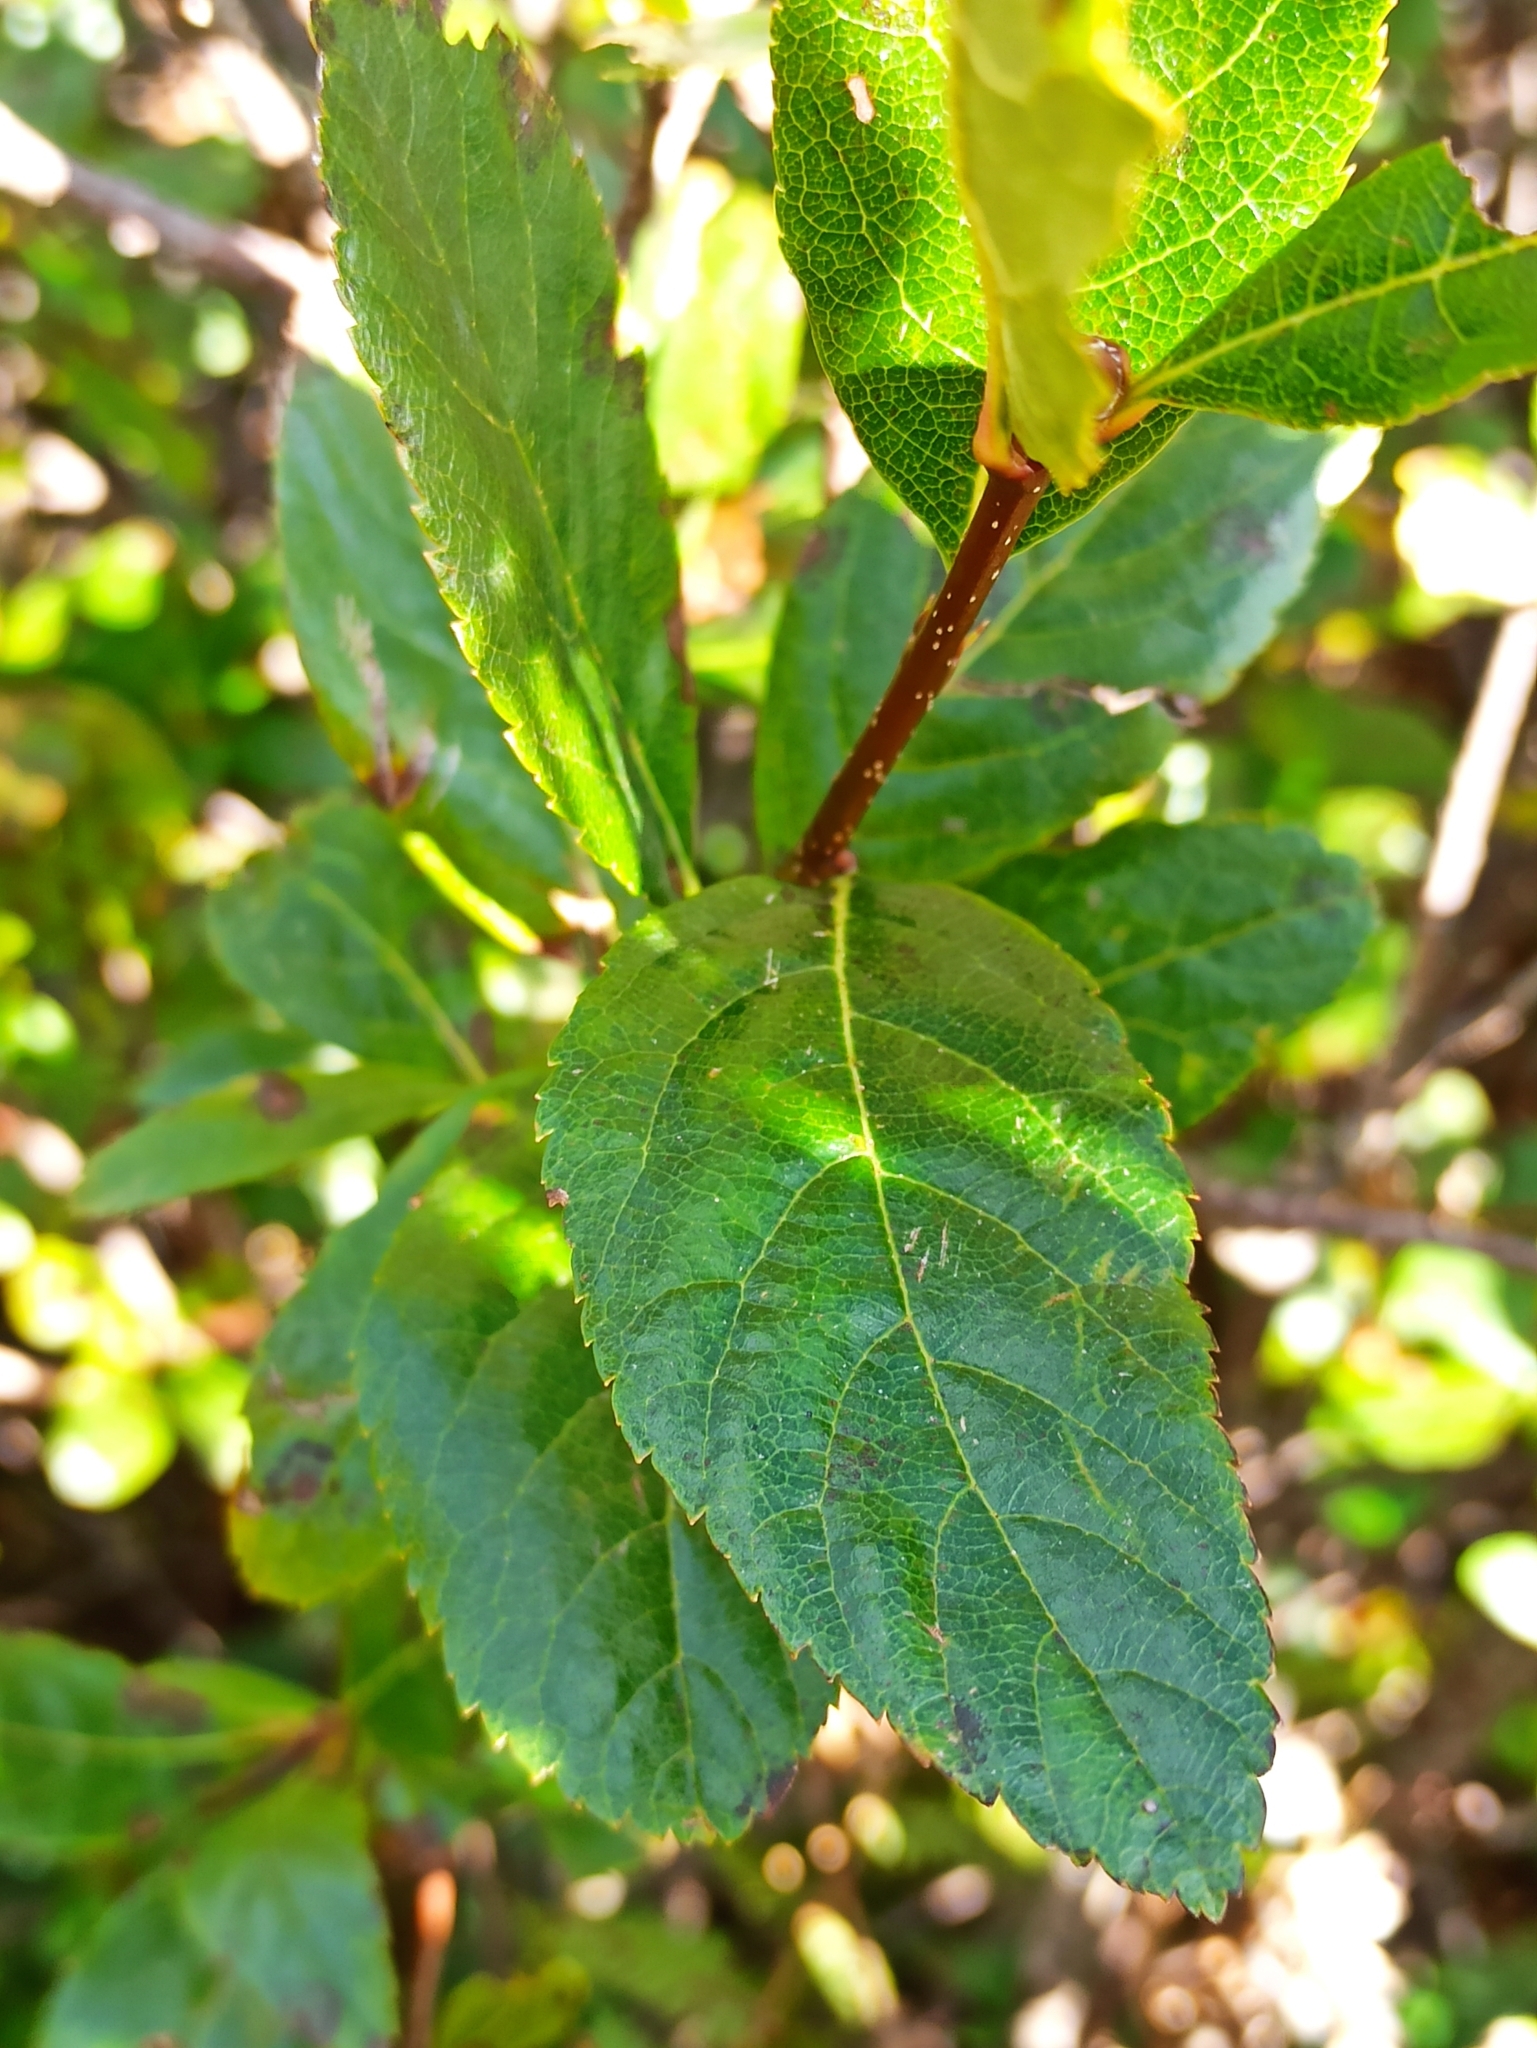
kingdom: Plantae
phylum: Tracheophyta
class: Magnoliopsida
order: Rosales
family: Rosaceae
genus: Chamaemespilus
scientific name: Chamaemespilus alpina
